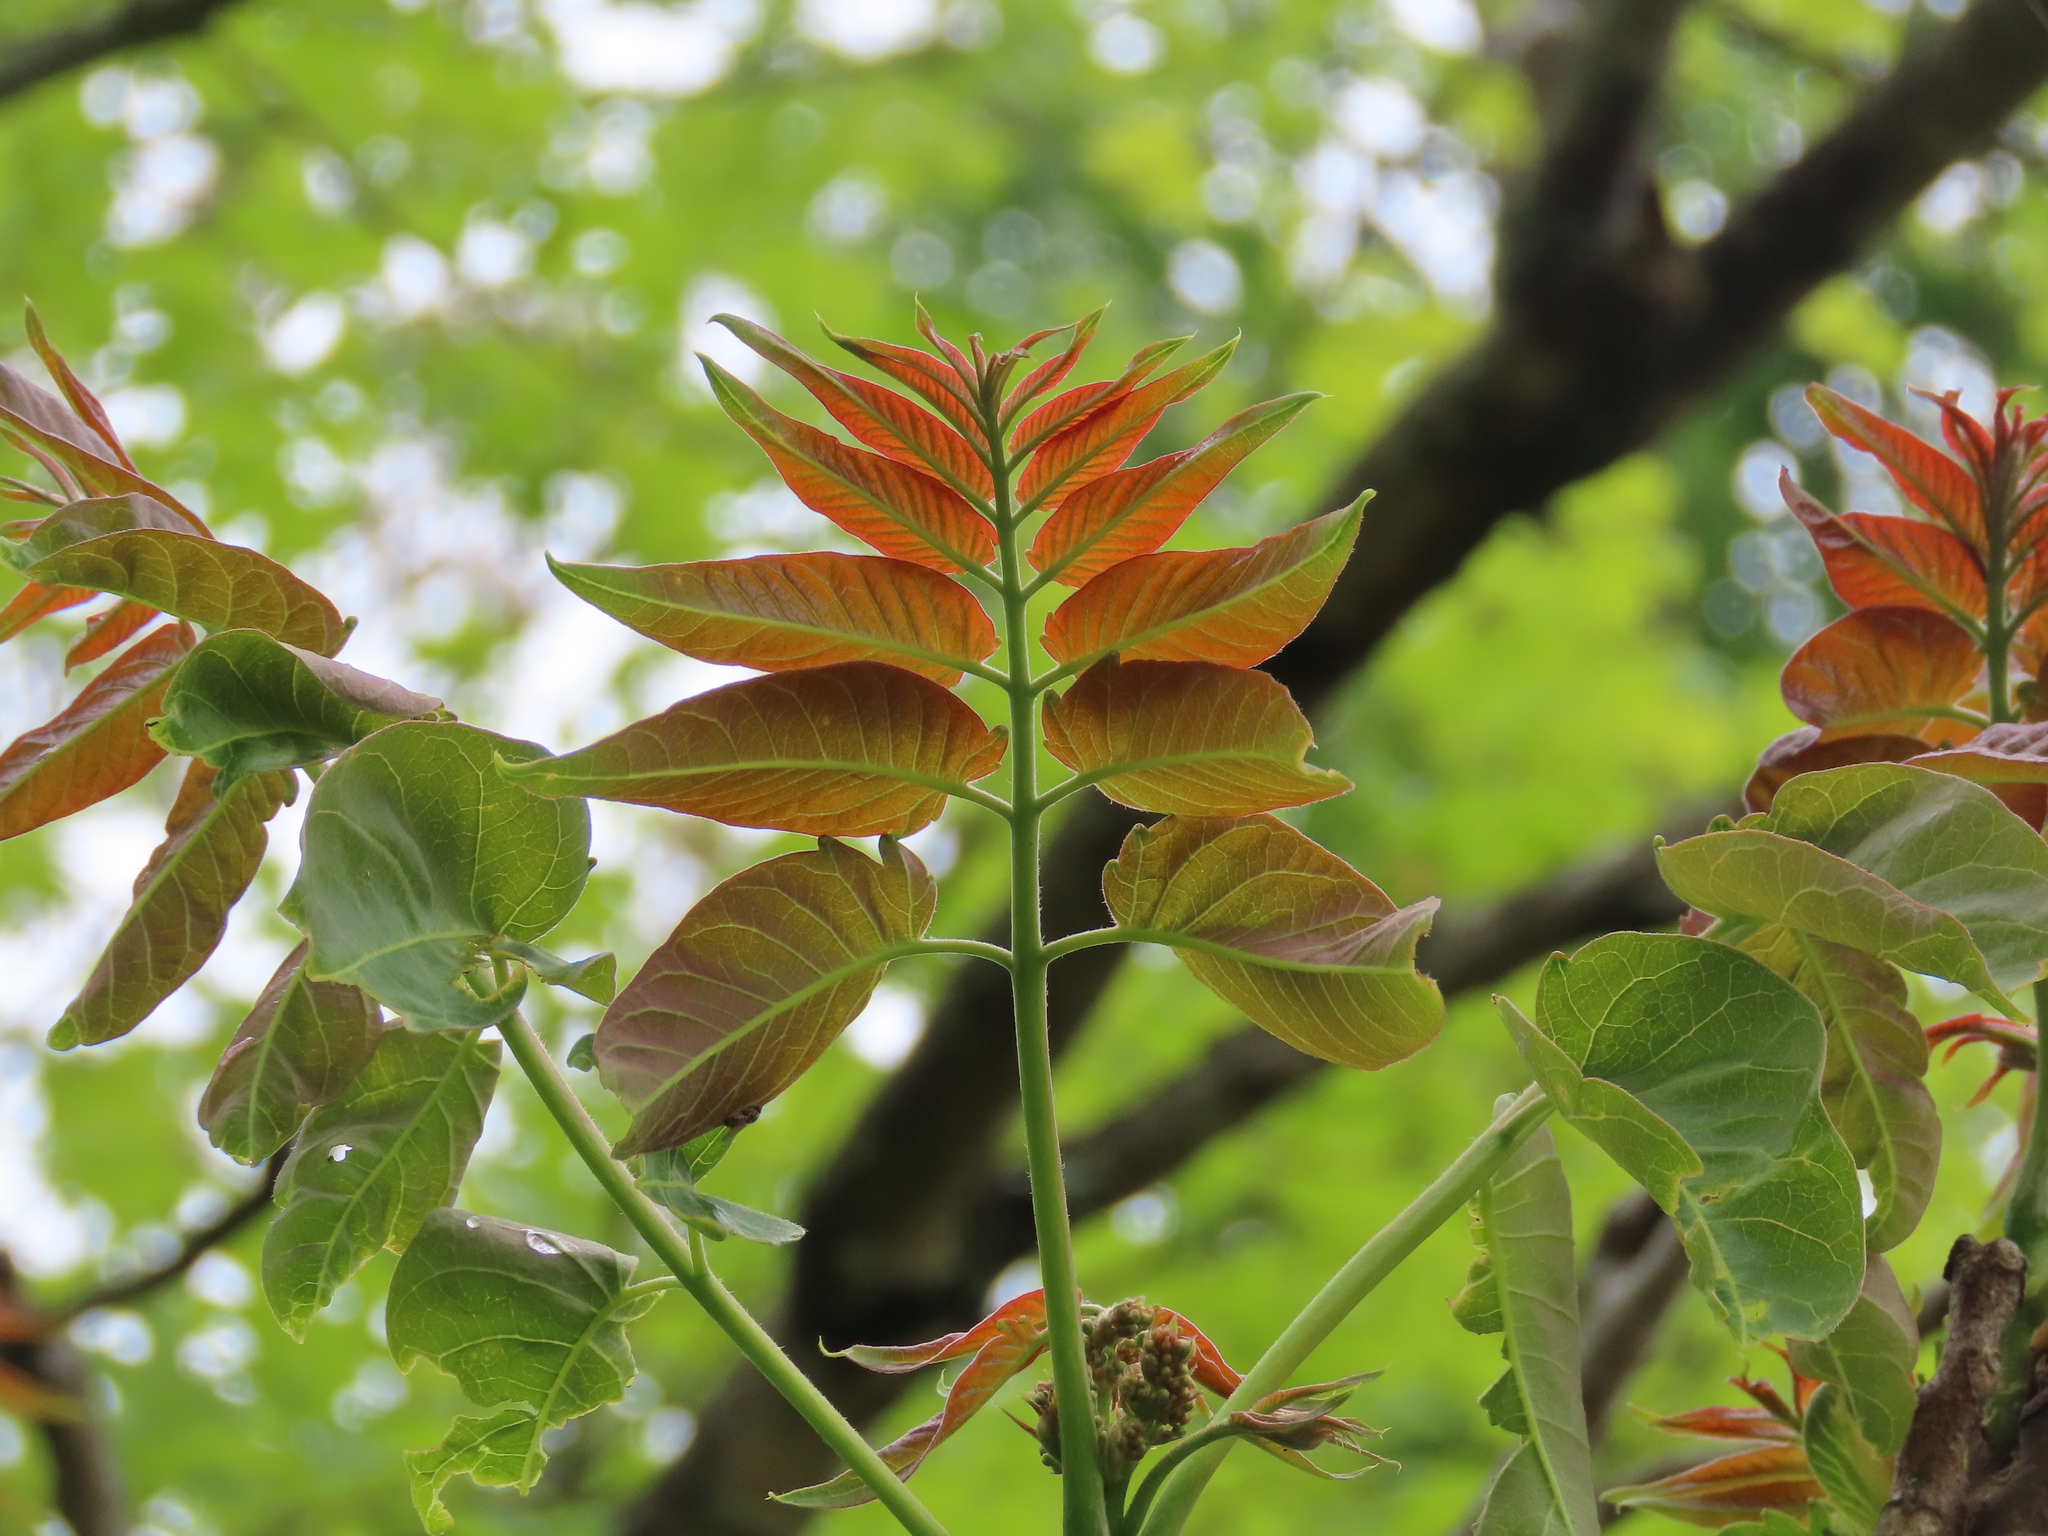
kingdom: Plantae
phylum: Tracheophyta
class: Magnoliopsida
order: Sapindales
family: Simaroubaceae
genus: Ailanthus
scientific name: Ailanthus altissima
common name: Tree-of-heaven
